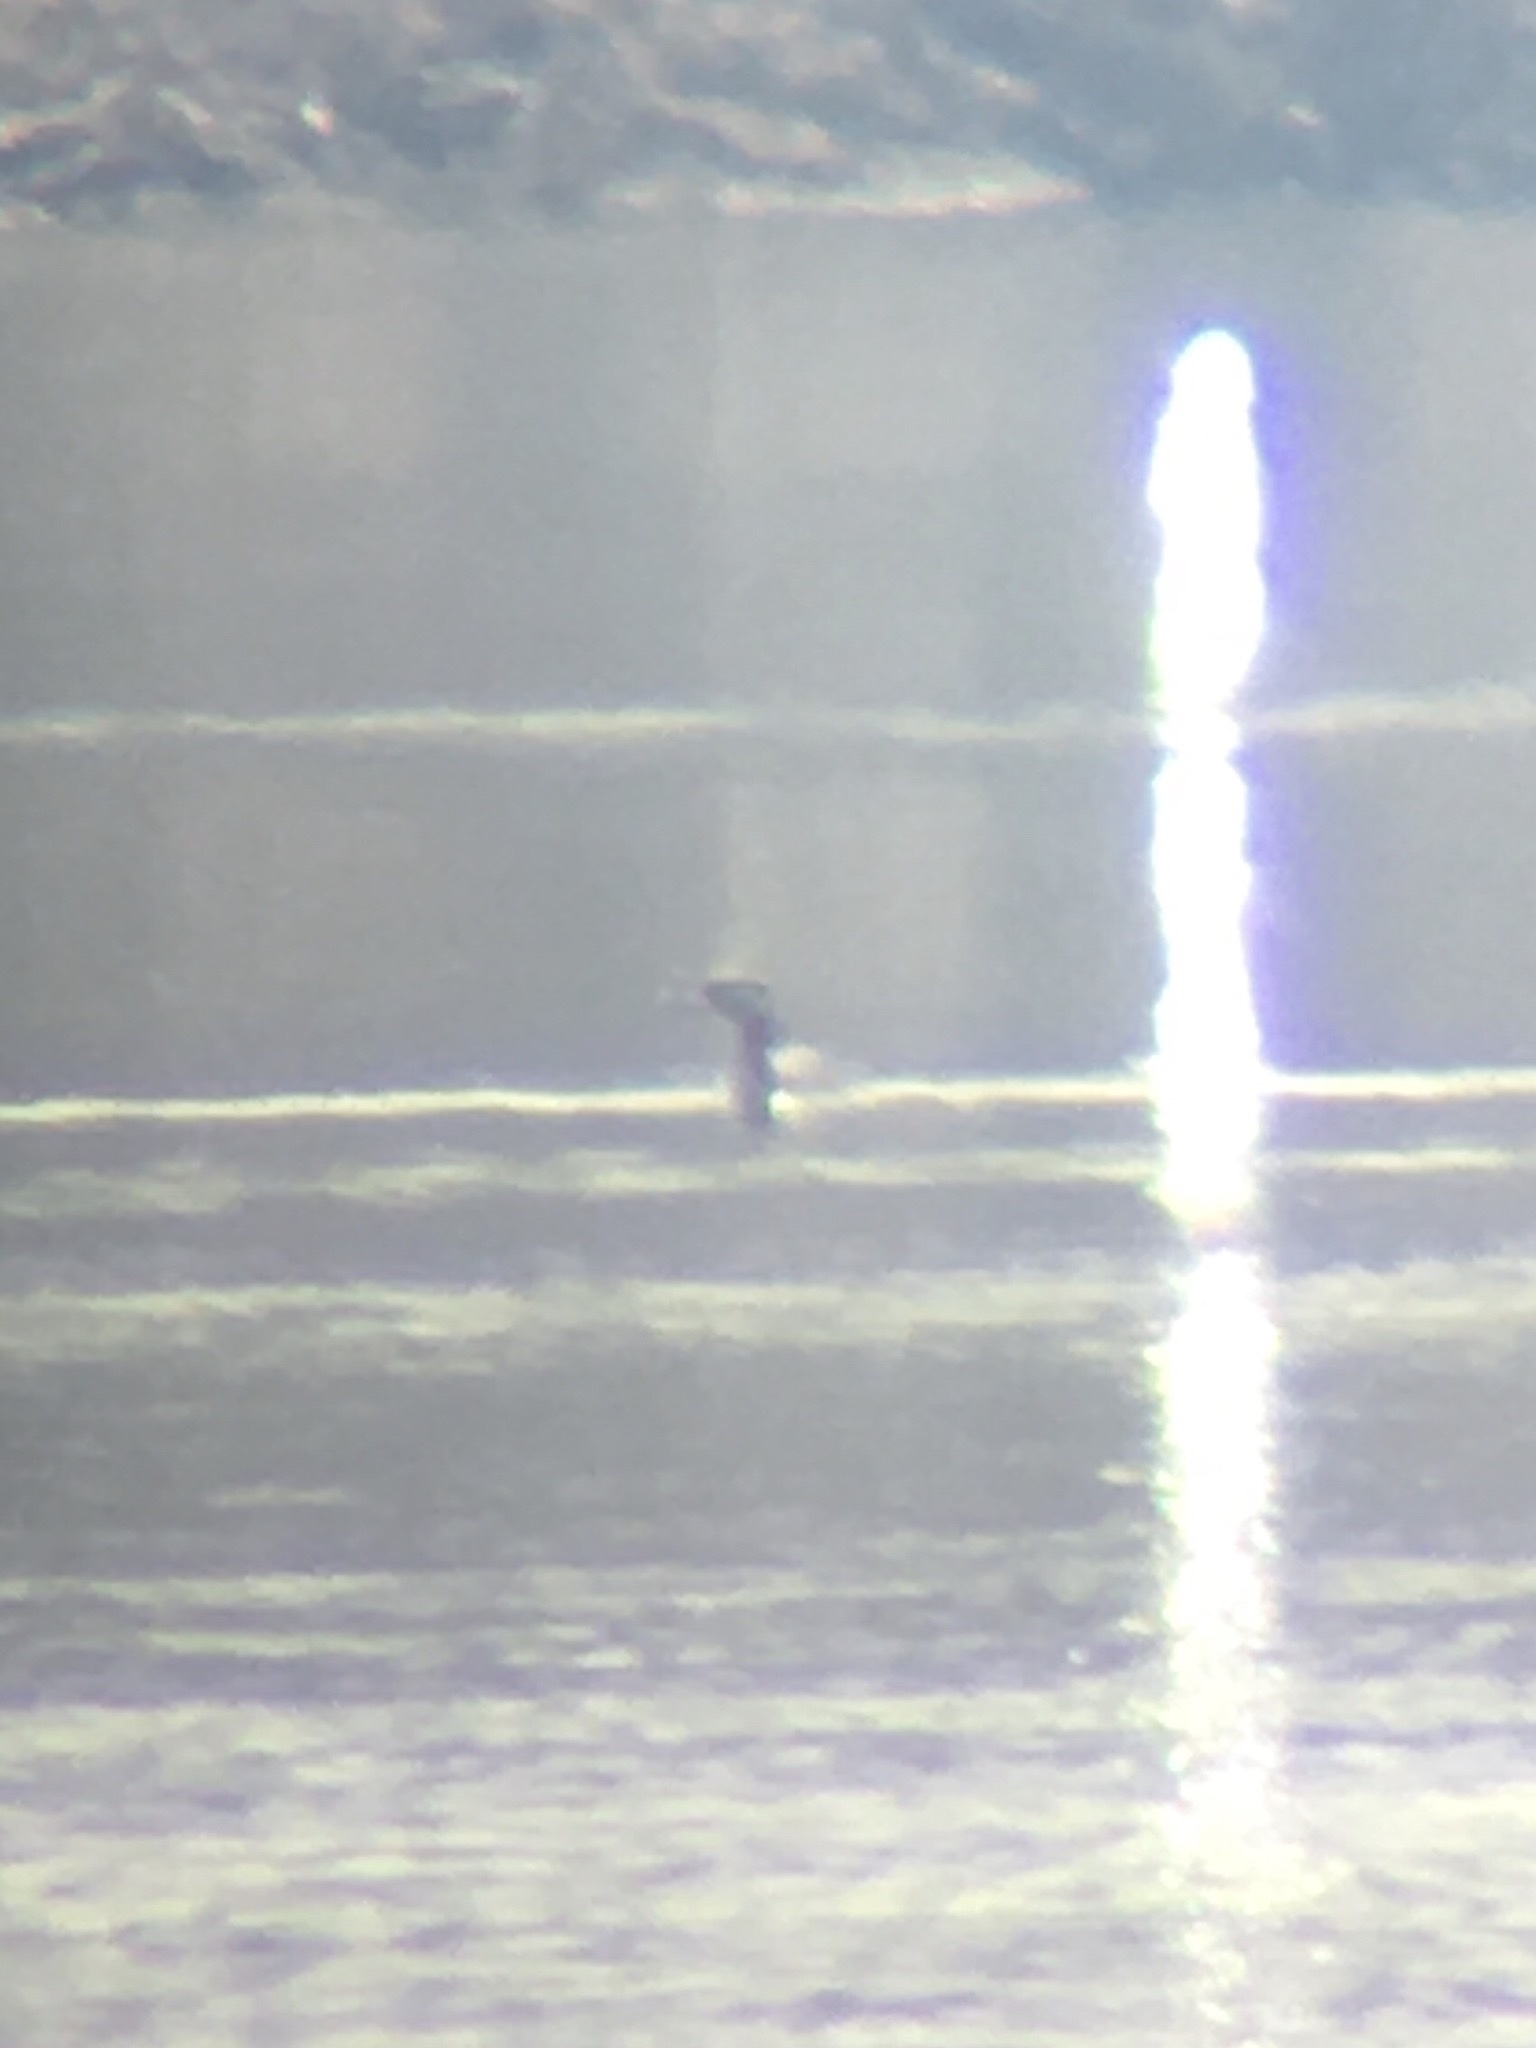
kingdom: Animalia
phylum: Chordata
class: Aves
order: Podicipediformes
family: Podicipedidae
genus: Podiceps
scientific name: Podiceps grisegena
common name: Red-necked grebe
